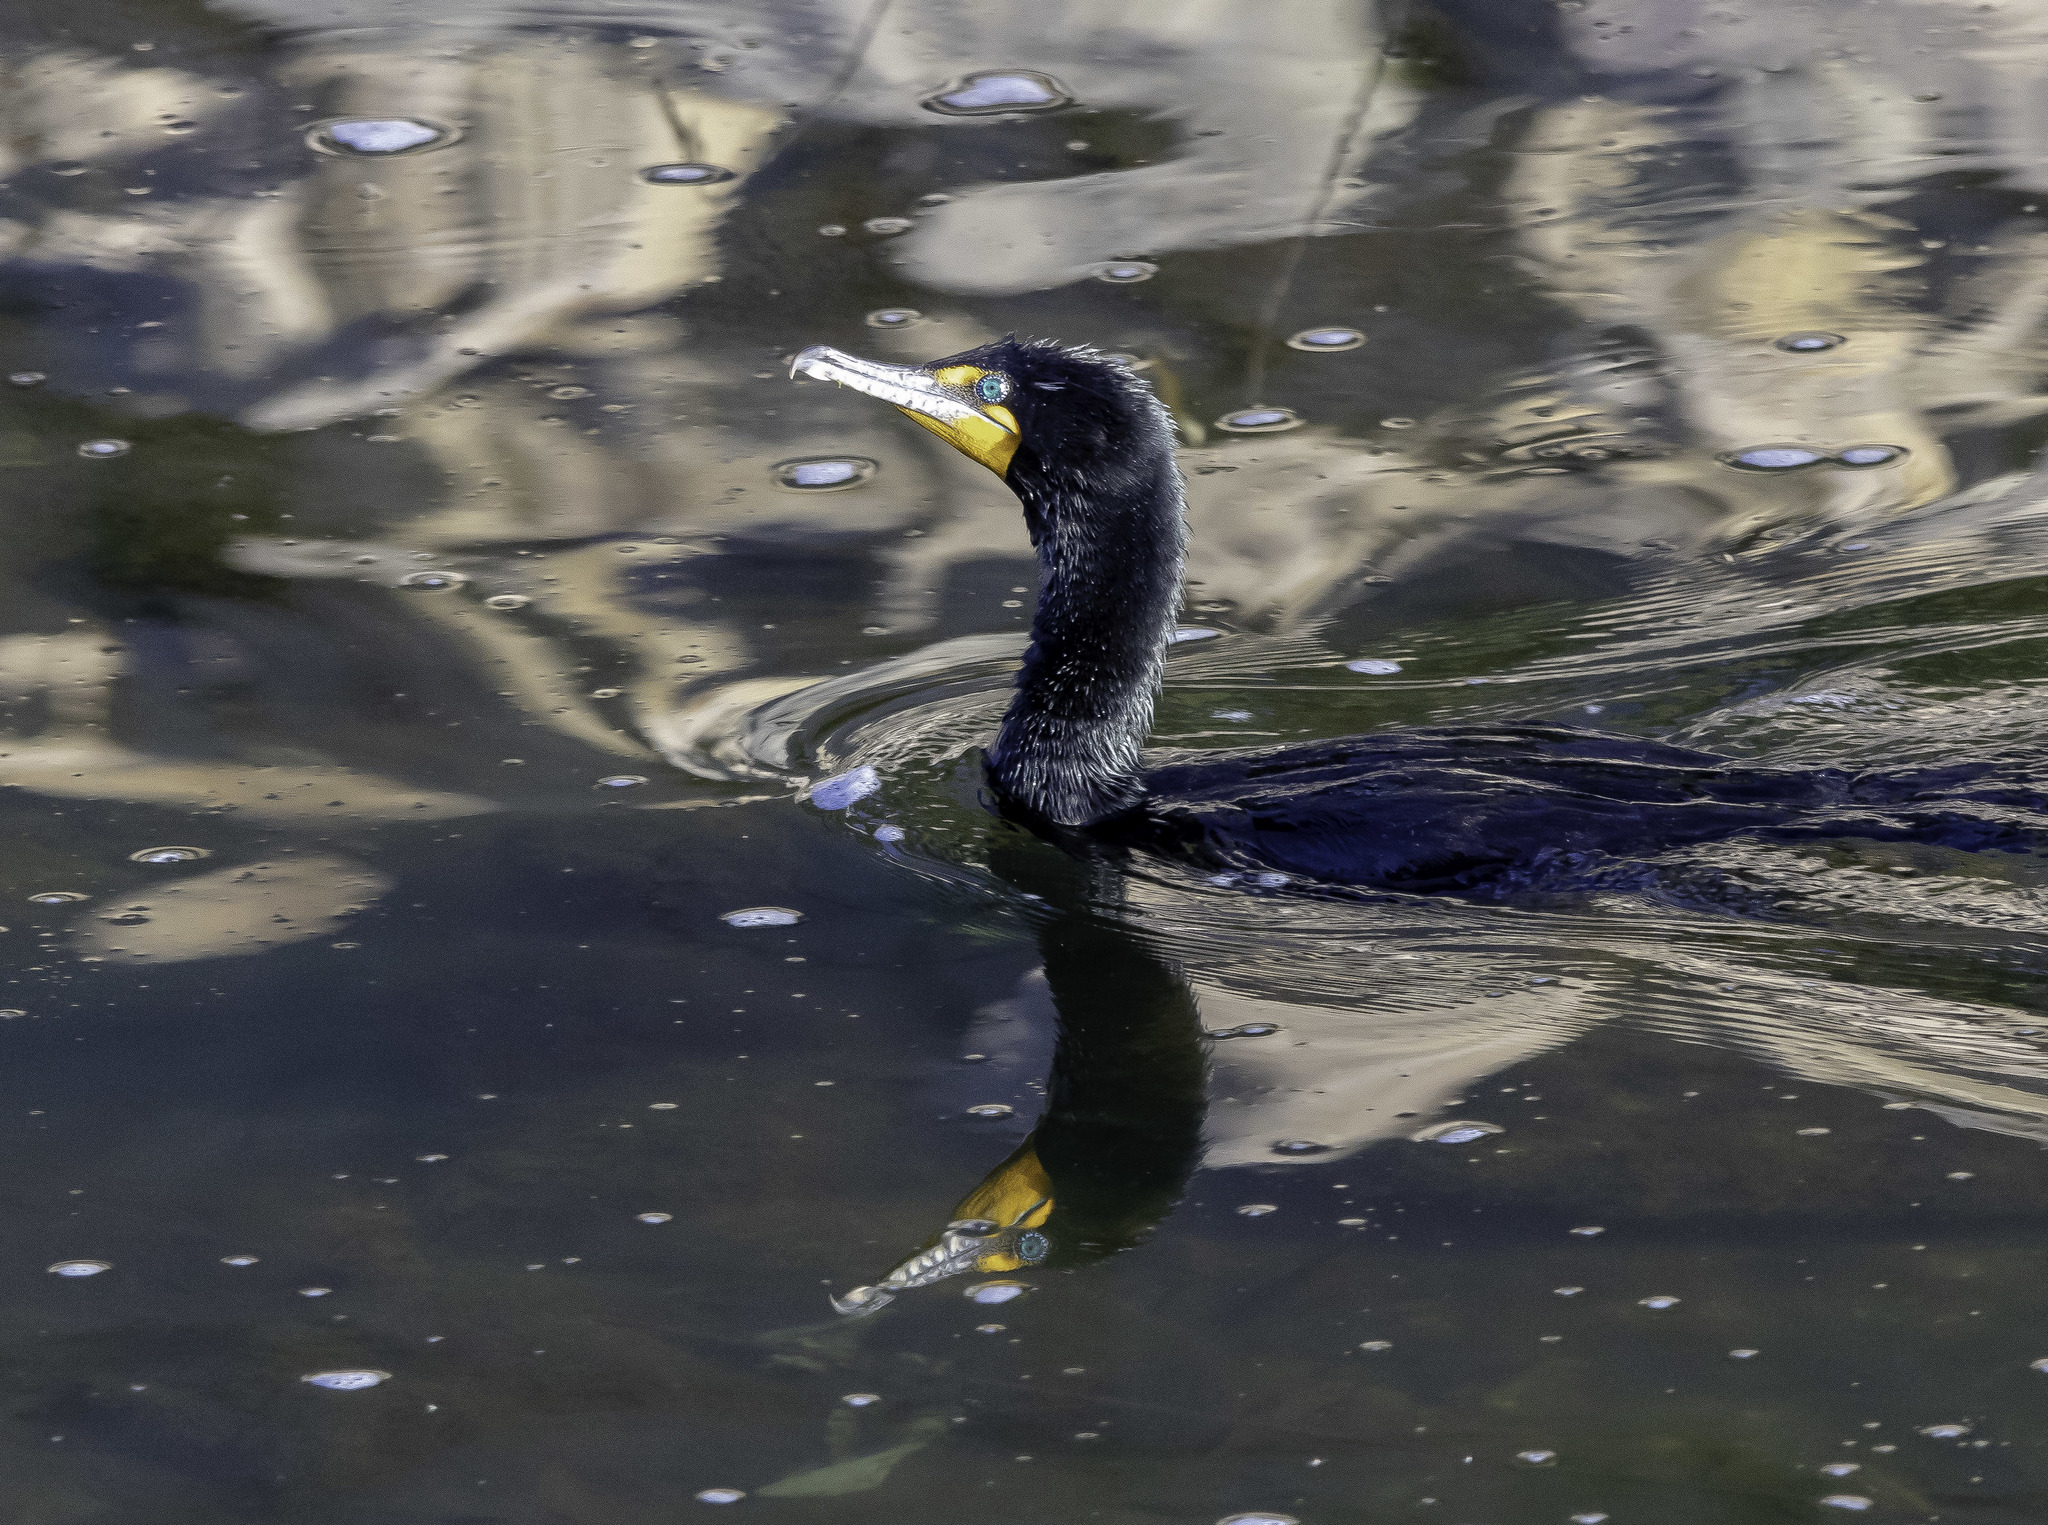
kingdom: Animalia
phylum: Chordata
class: Aves
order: Suliformes
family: Phalacrocoracidae
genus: Phalacrocorax
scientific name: Phalacrocorax auritus
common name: Double-crested cormorant
